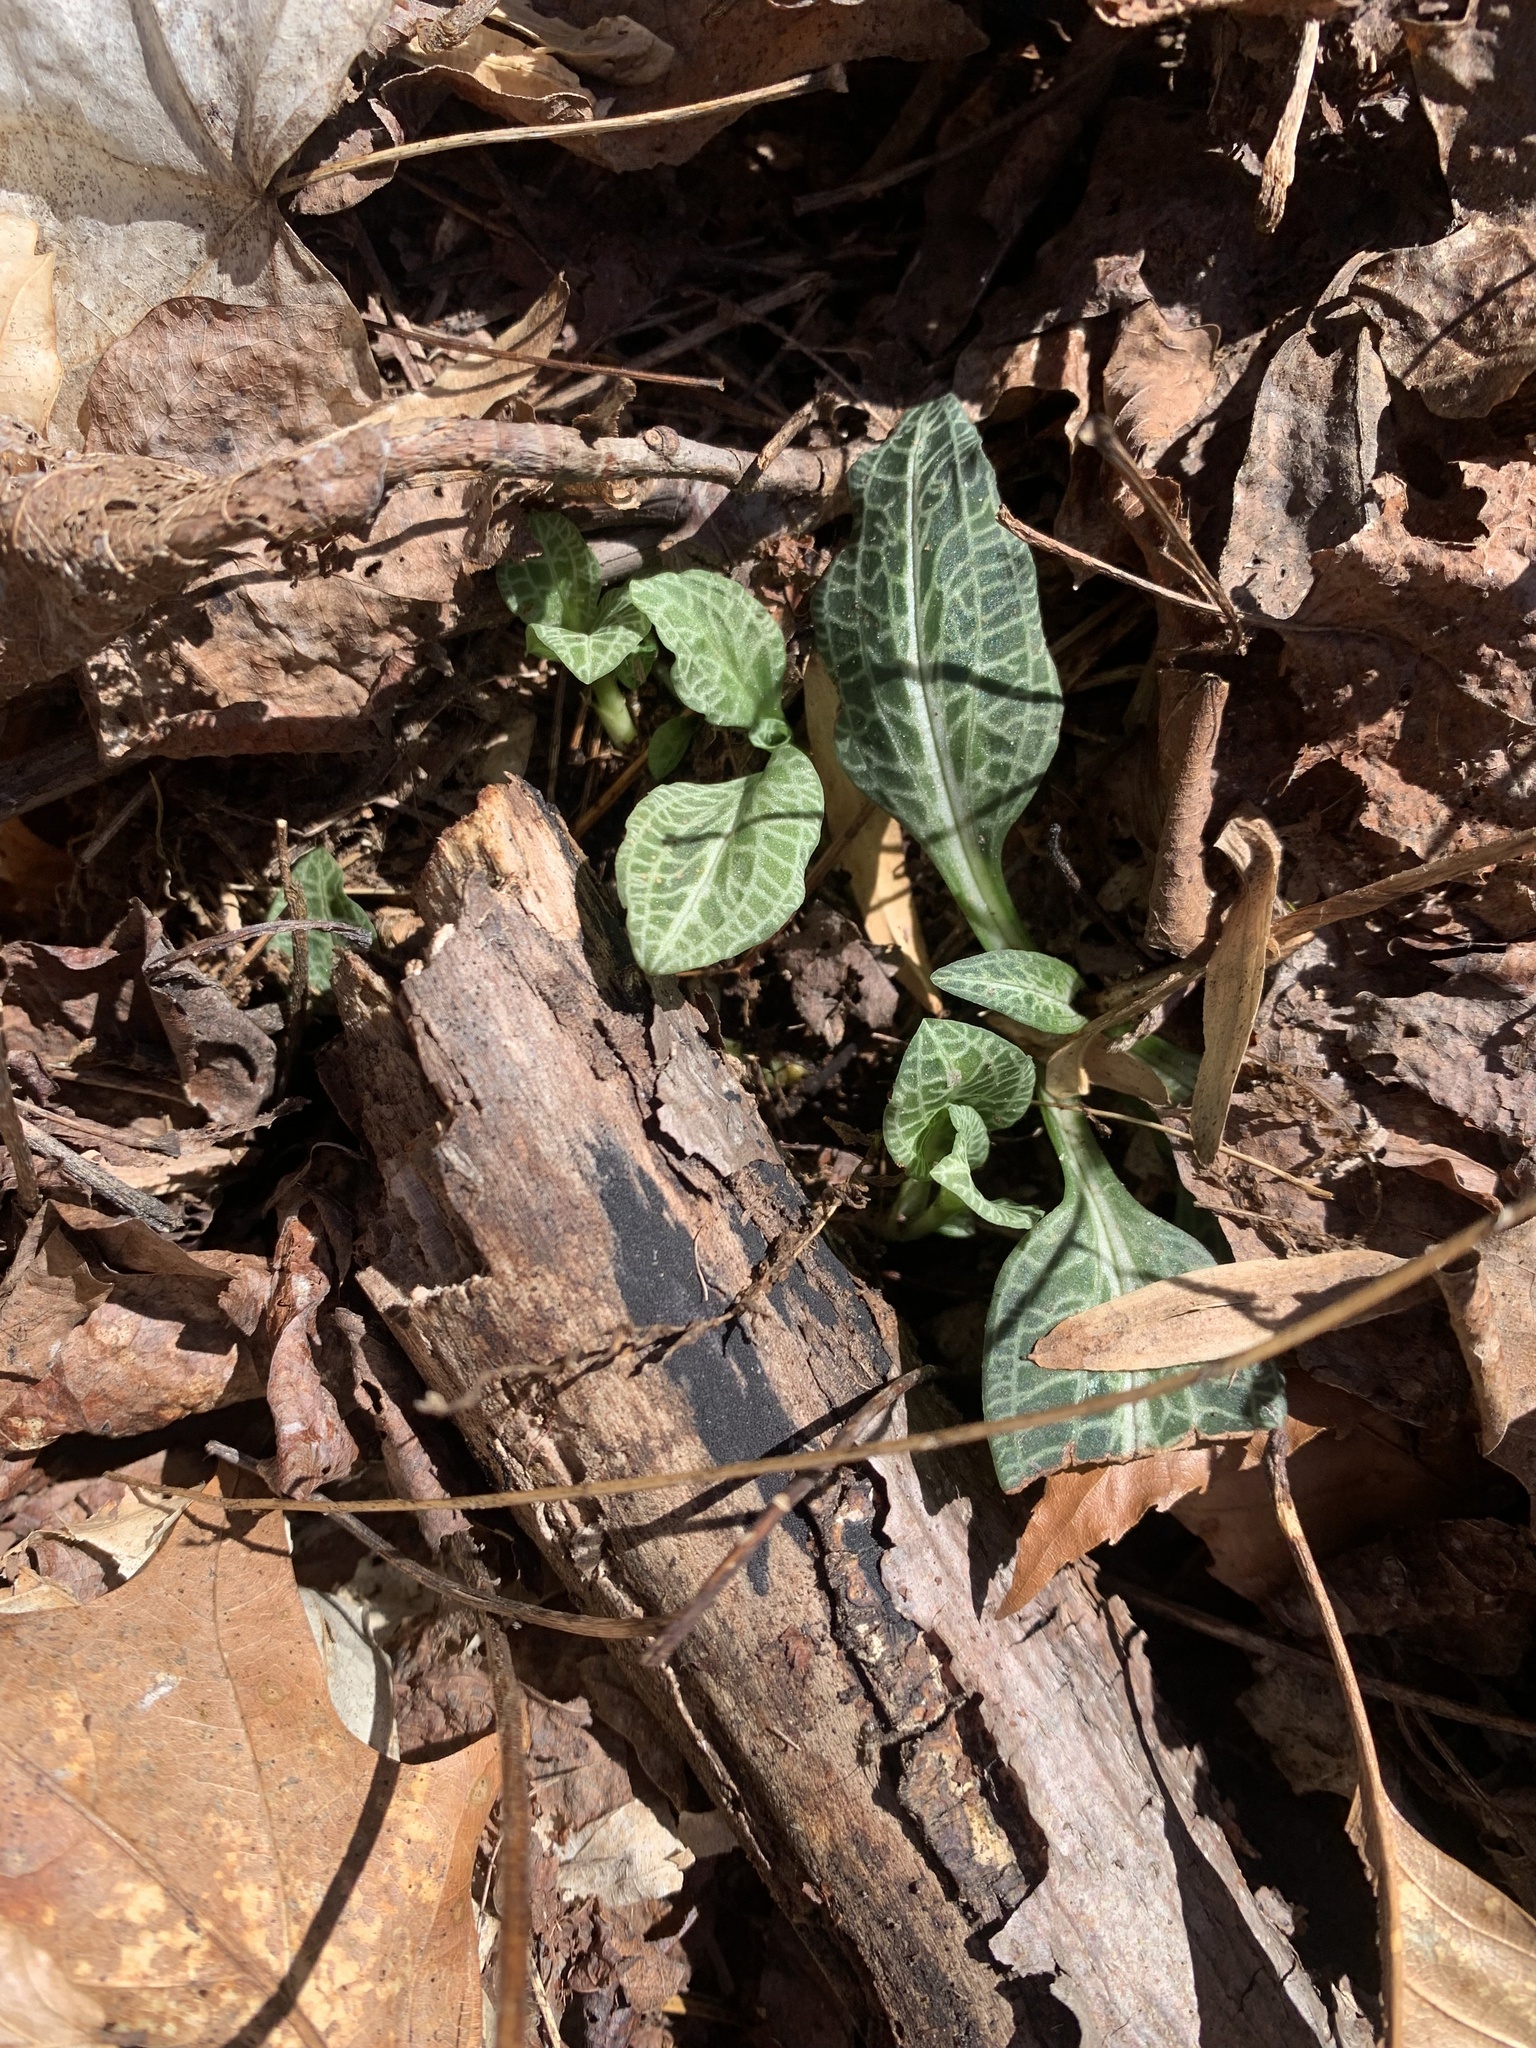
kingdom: Plantae
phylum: Tracheophyta
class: Liliopsida
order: Asparagales
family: Orchidaceae
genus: Goodyera
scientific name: Goodyera pubescens
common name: Downy rattlesnake-plantain
